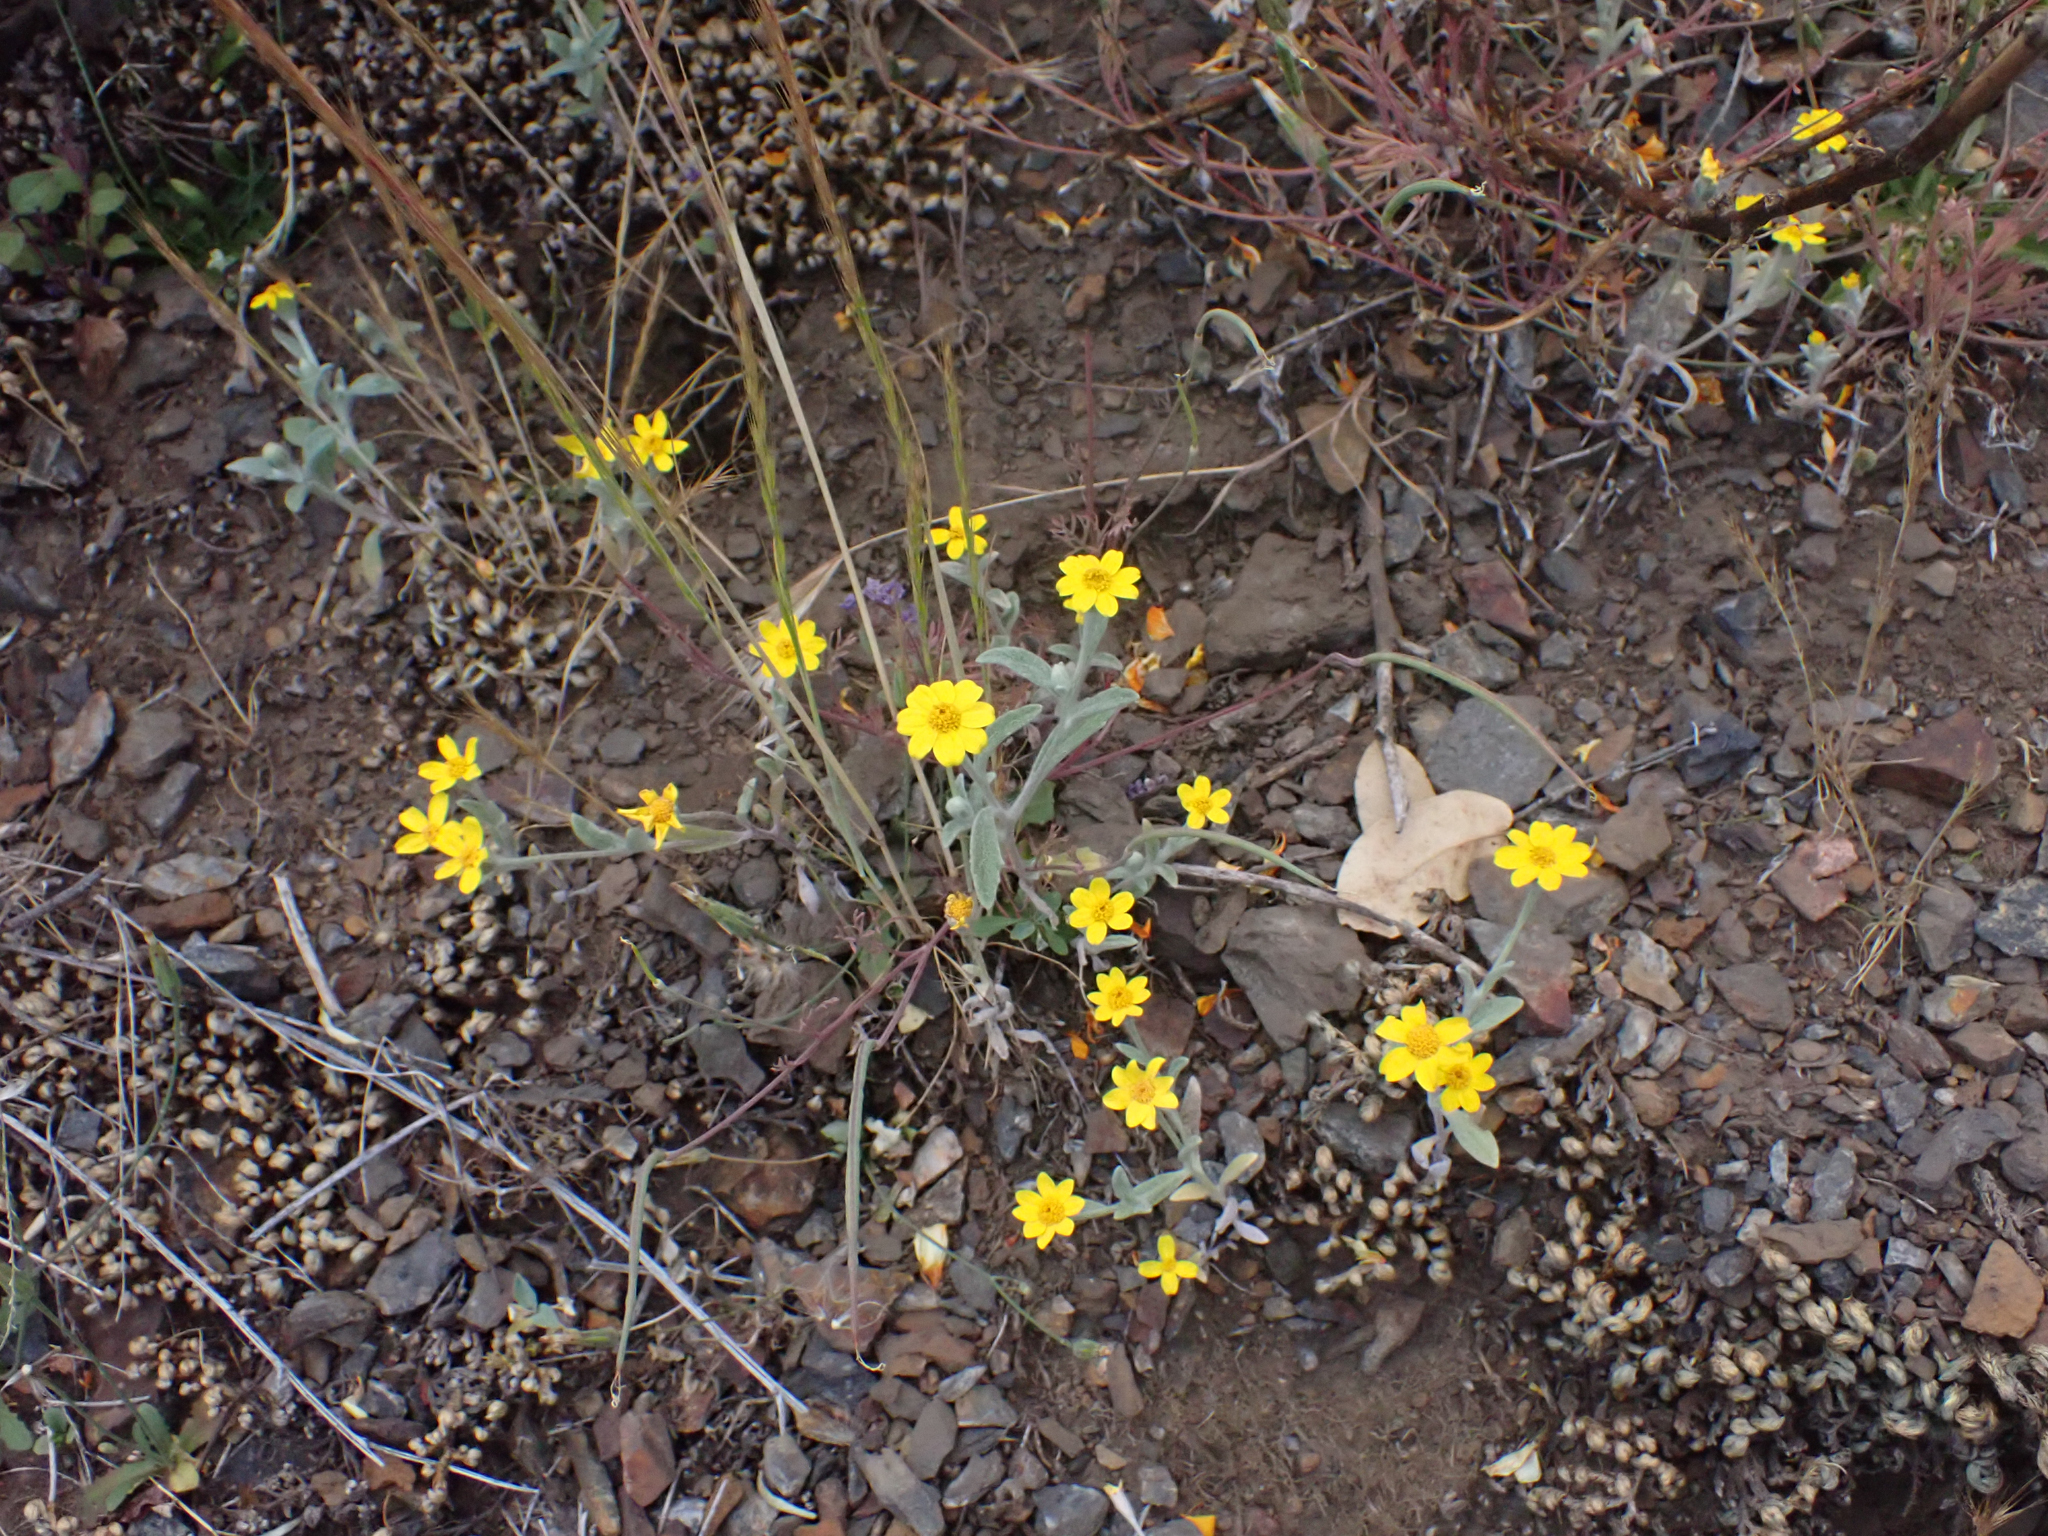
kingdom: Plantae
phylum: Tracheophyta
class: Magnoliopsida
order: Asterales
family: Asteraceae
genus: Eriophyllum
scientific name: Eriophyllum congdonii
